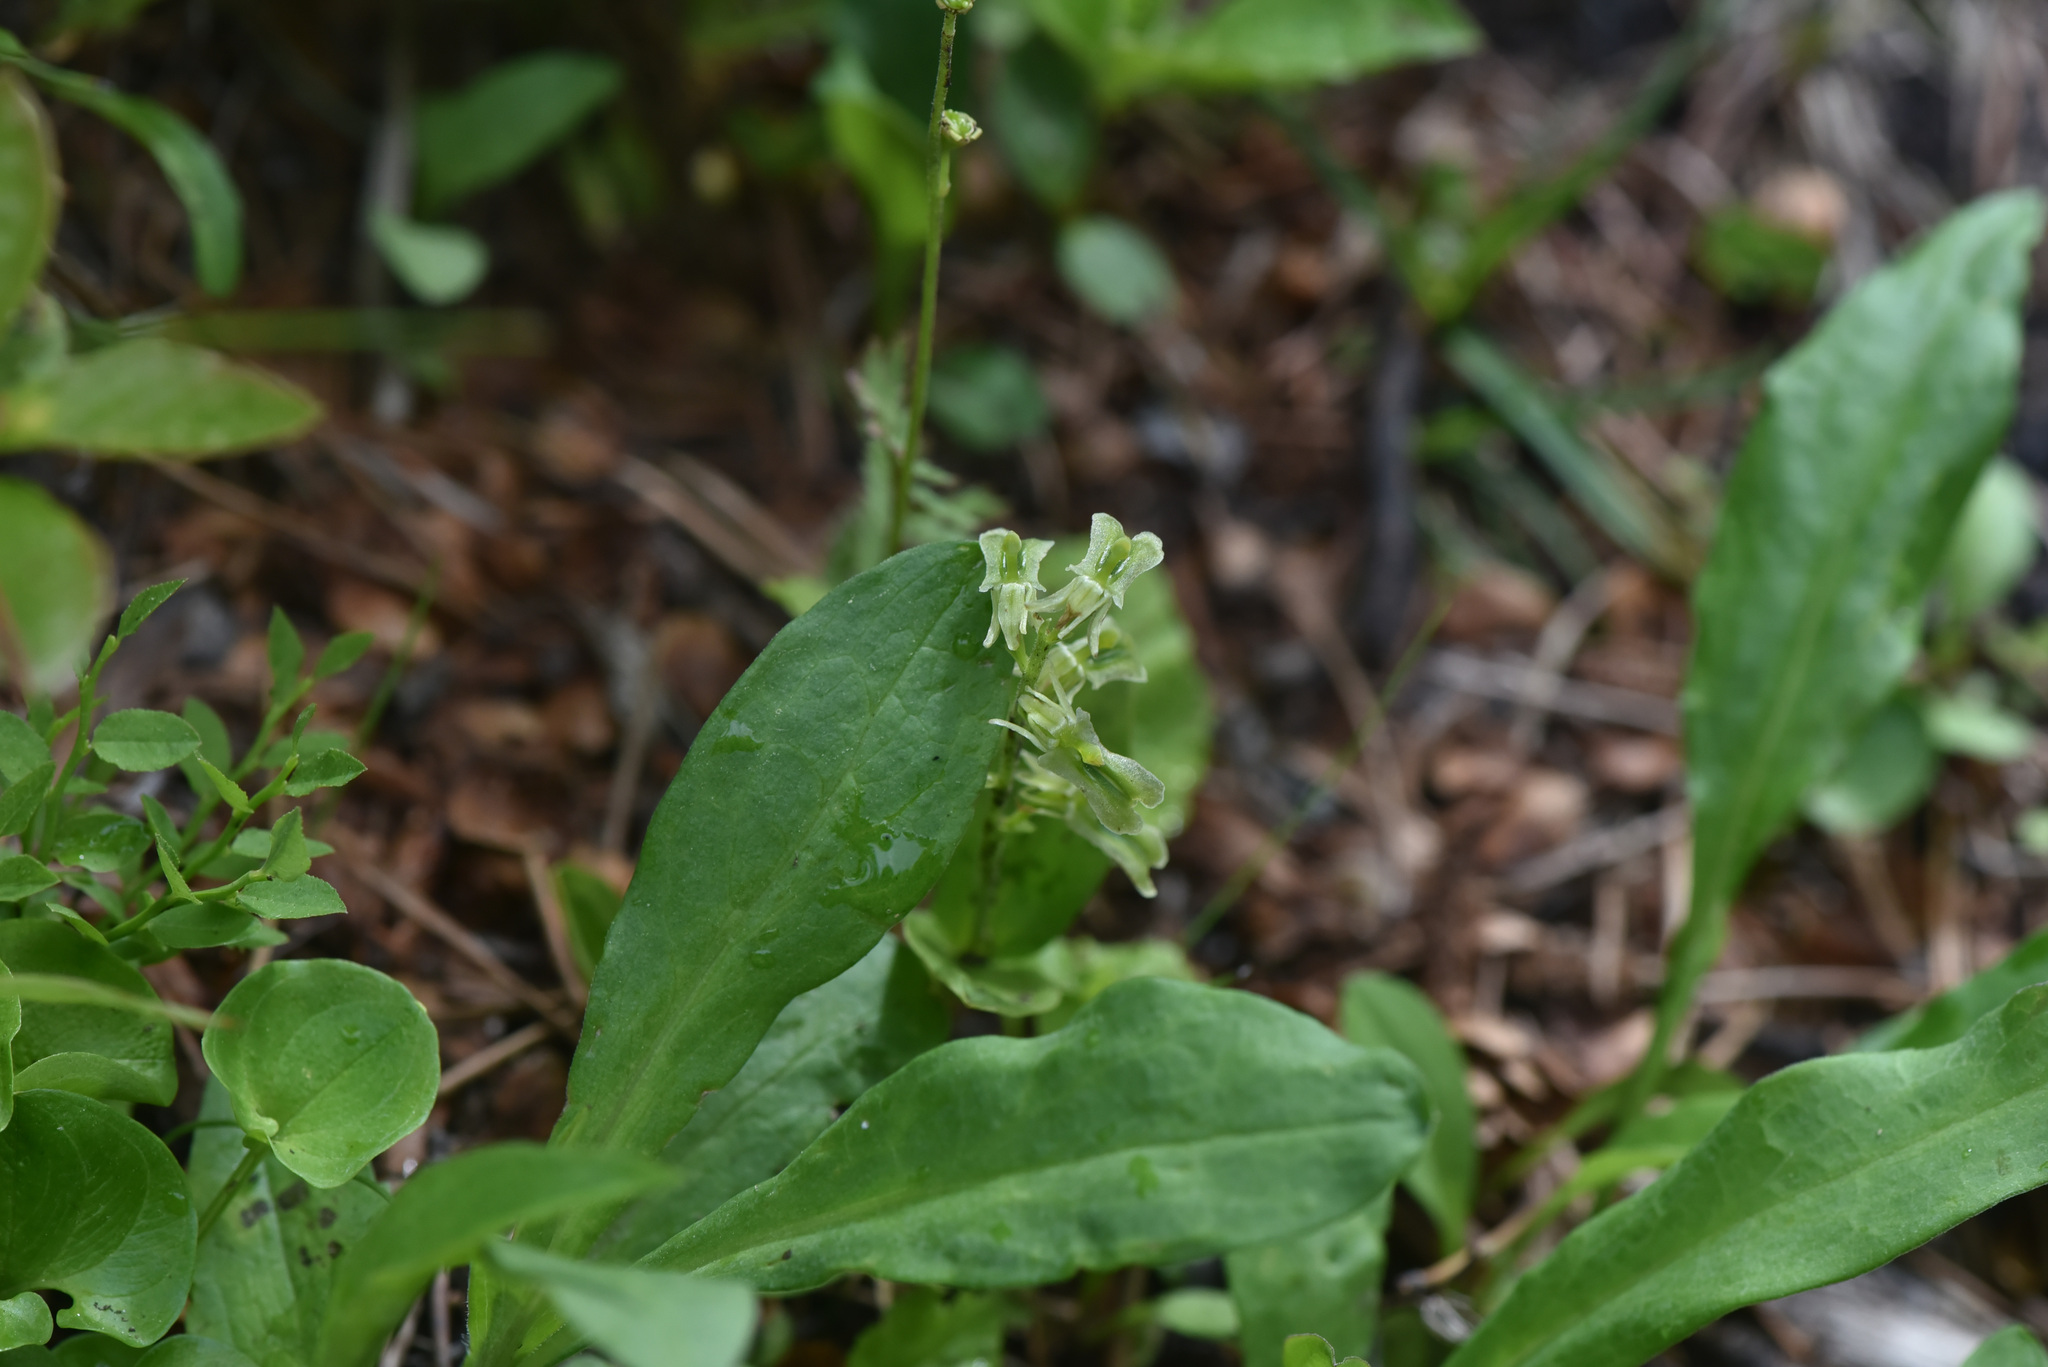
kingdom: Plantae
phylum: Tracheophyta
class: Liliopsida
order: Asparagales
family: Orchidaceae
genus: Neottia
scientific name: Neottia borealis
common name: Northern twayblade
